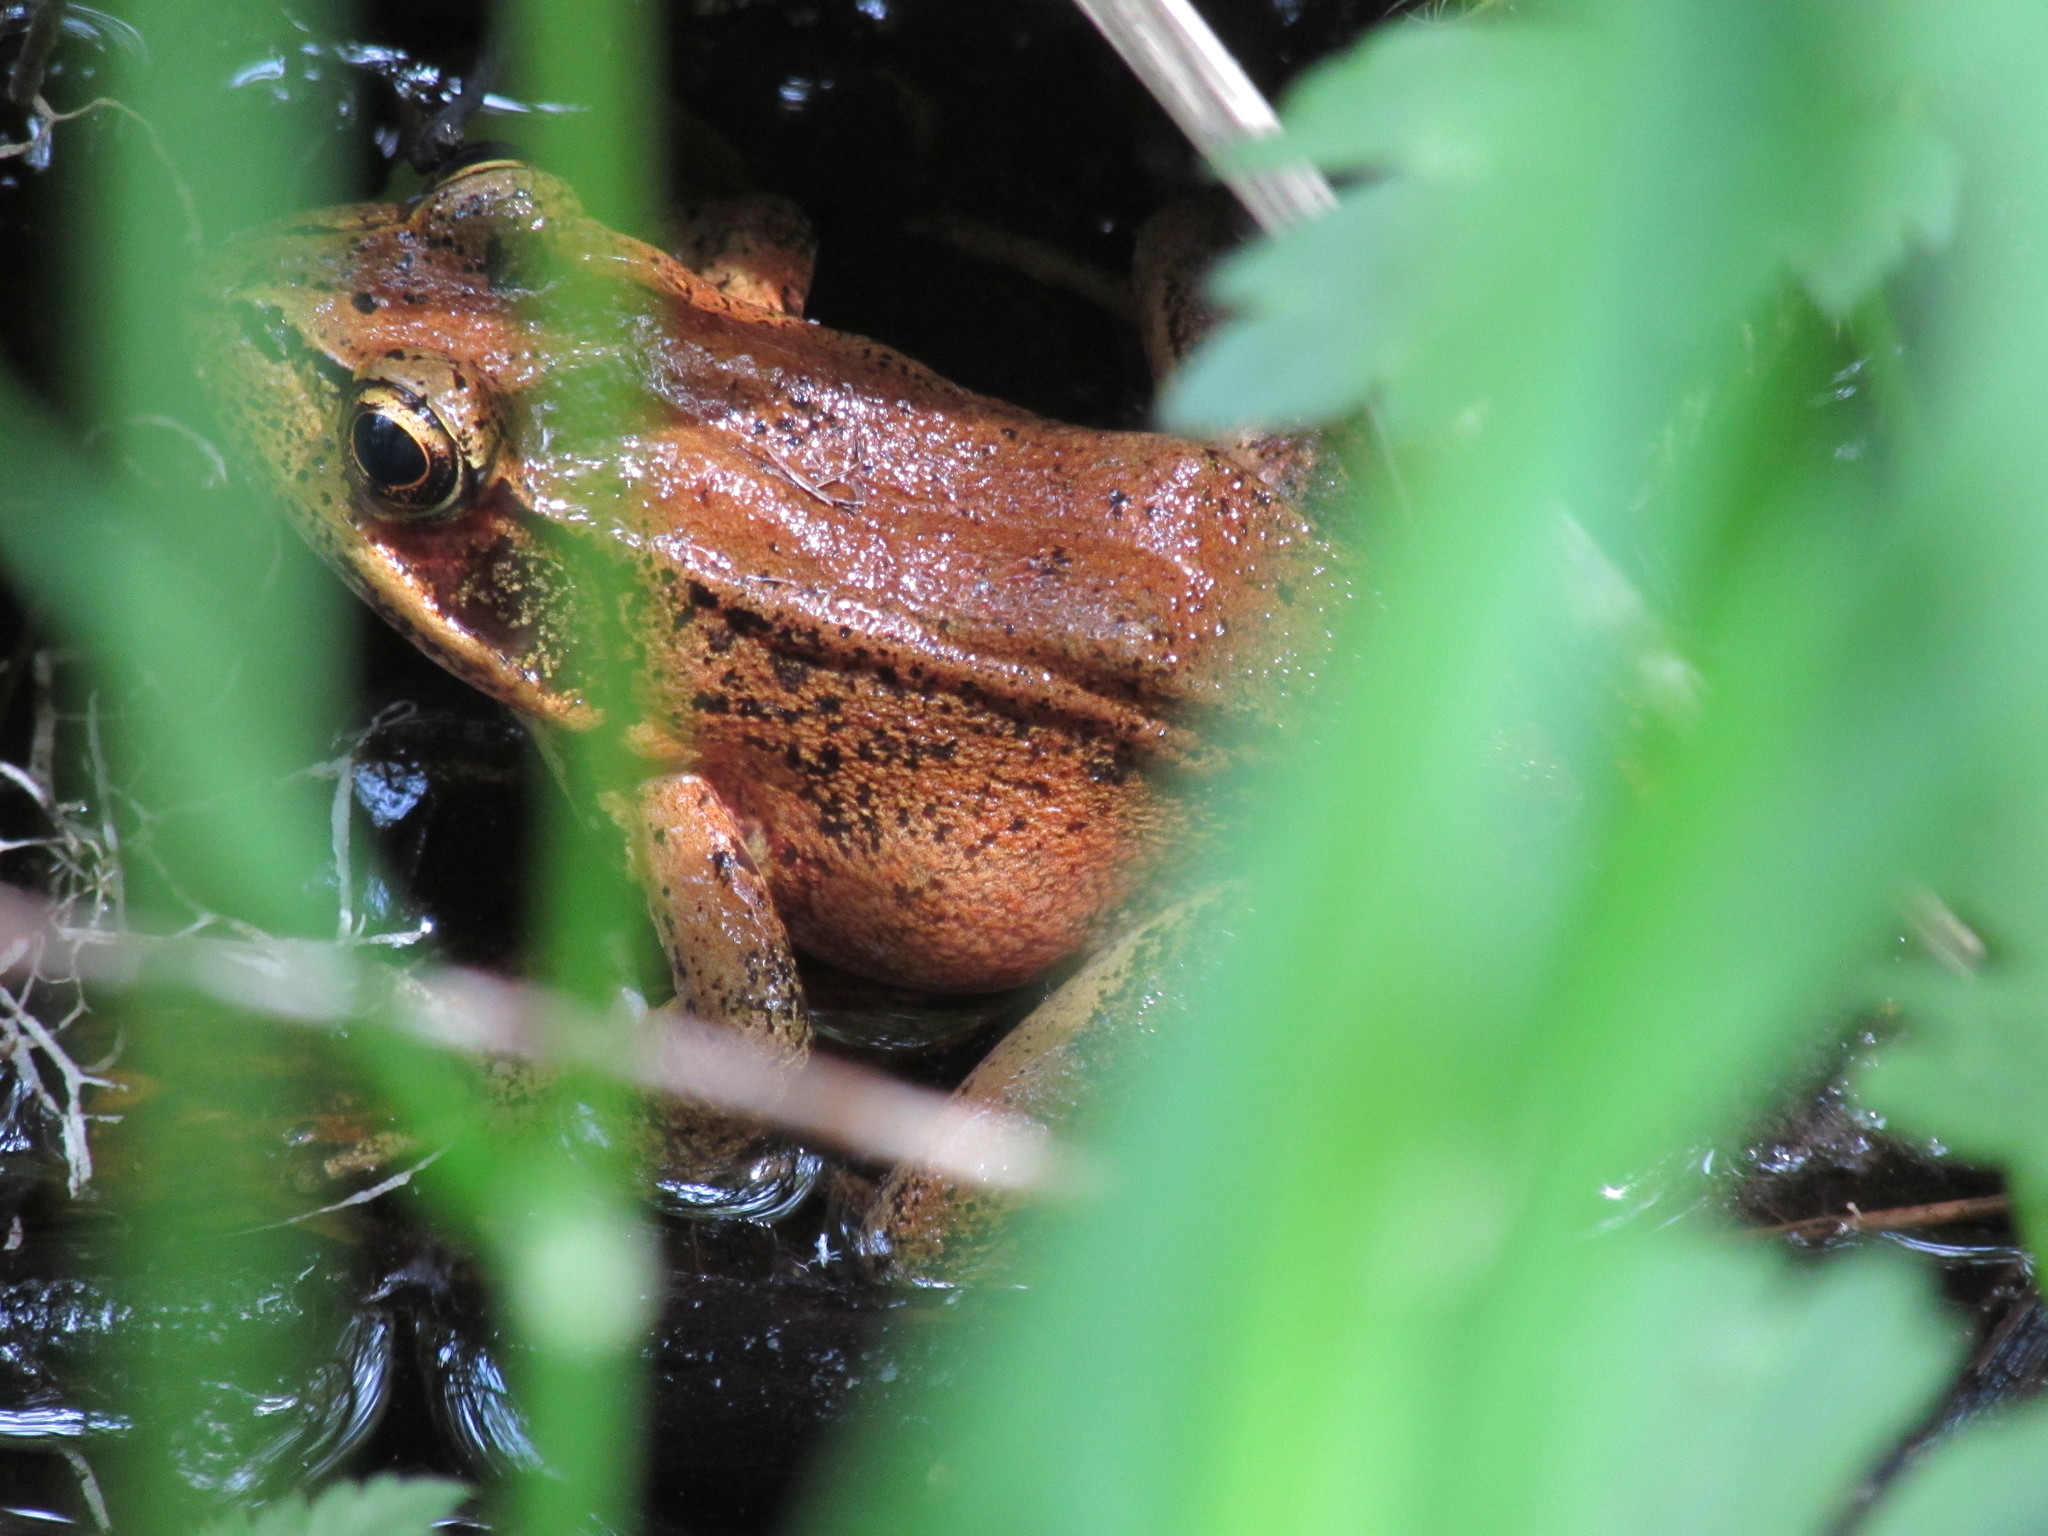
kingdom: Animalia
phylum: Chordata
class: Amphibia
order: Anura
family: Ranidae
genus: Rana
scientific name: Rana aurora
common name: Red-legged frog
